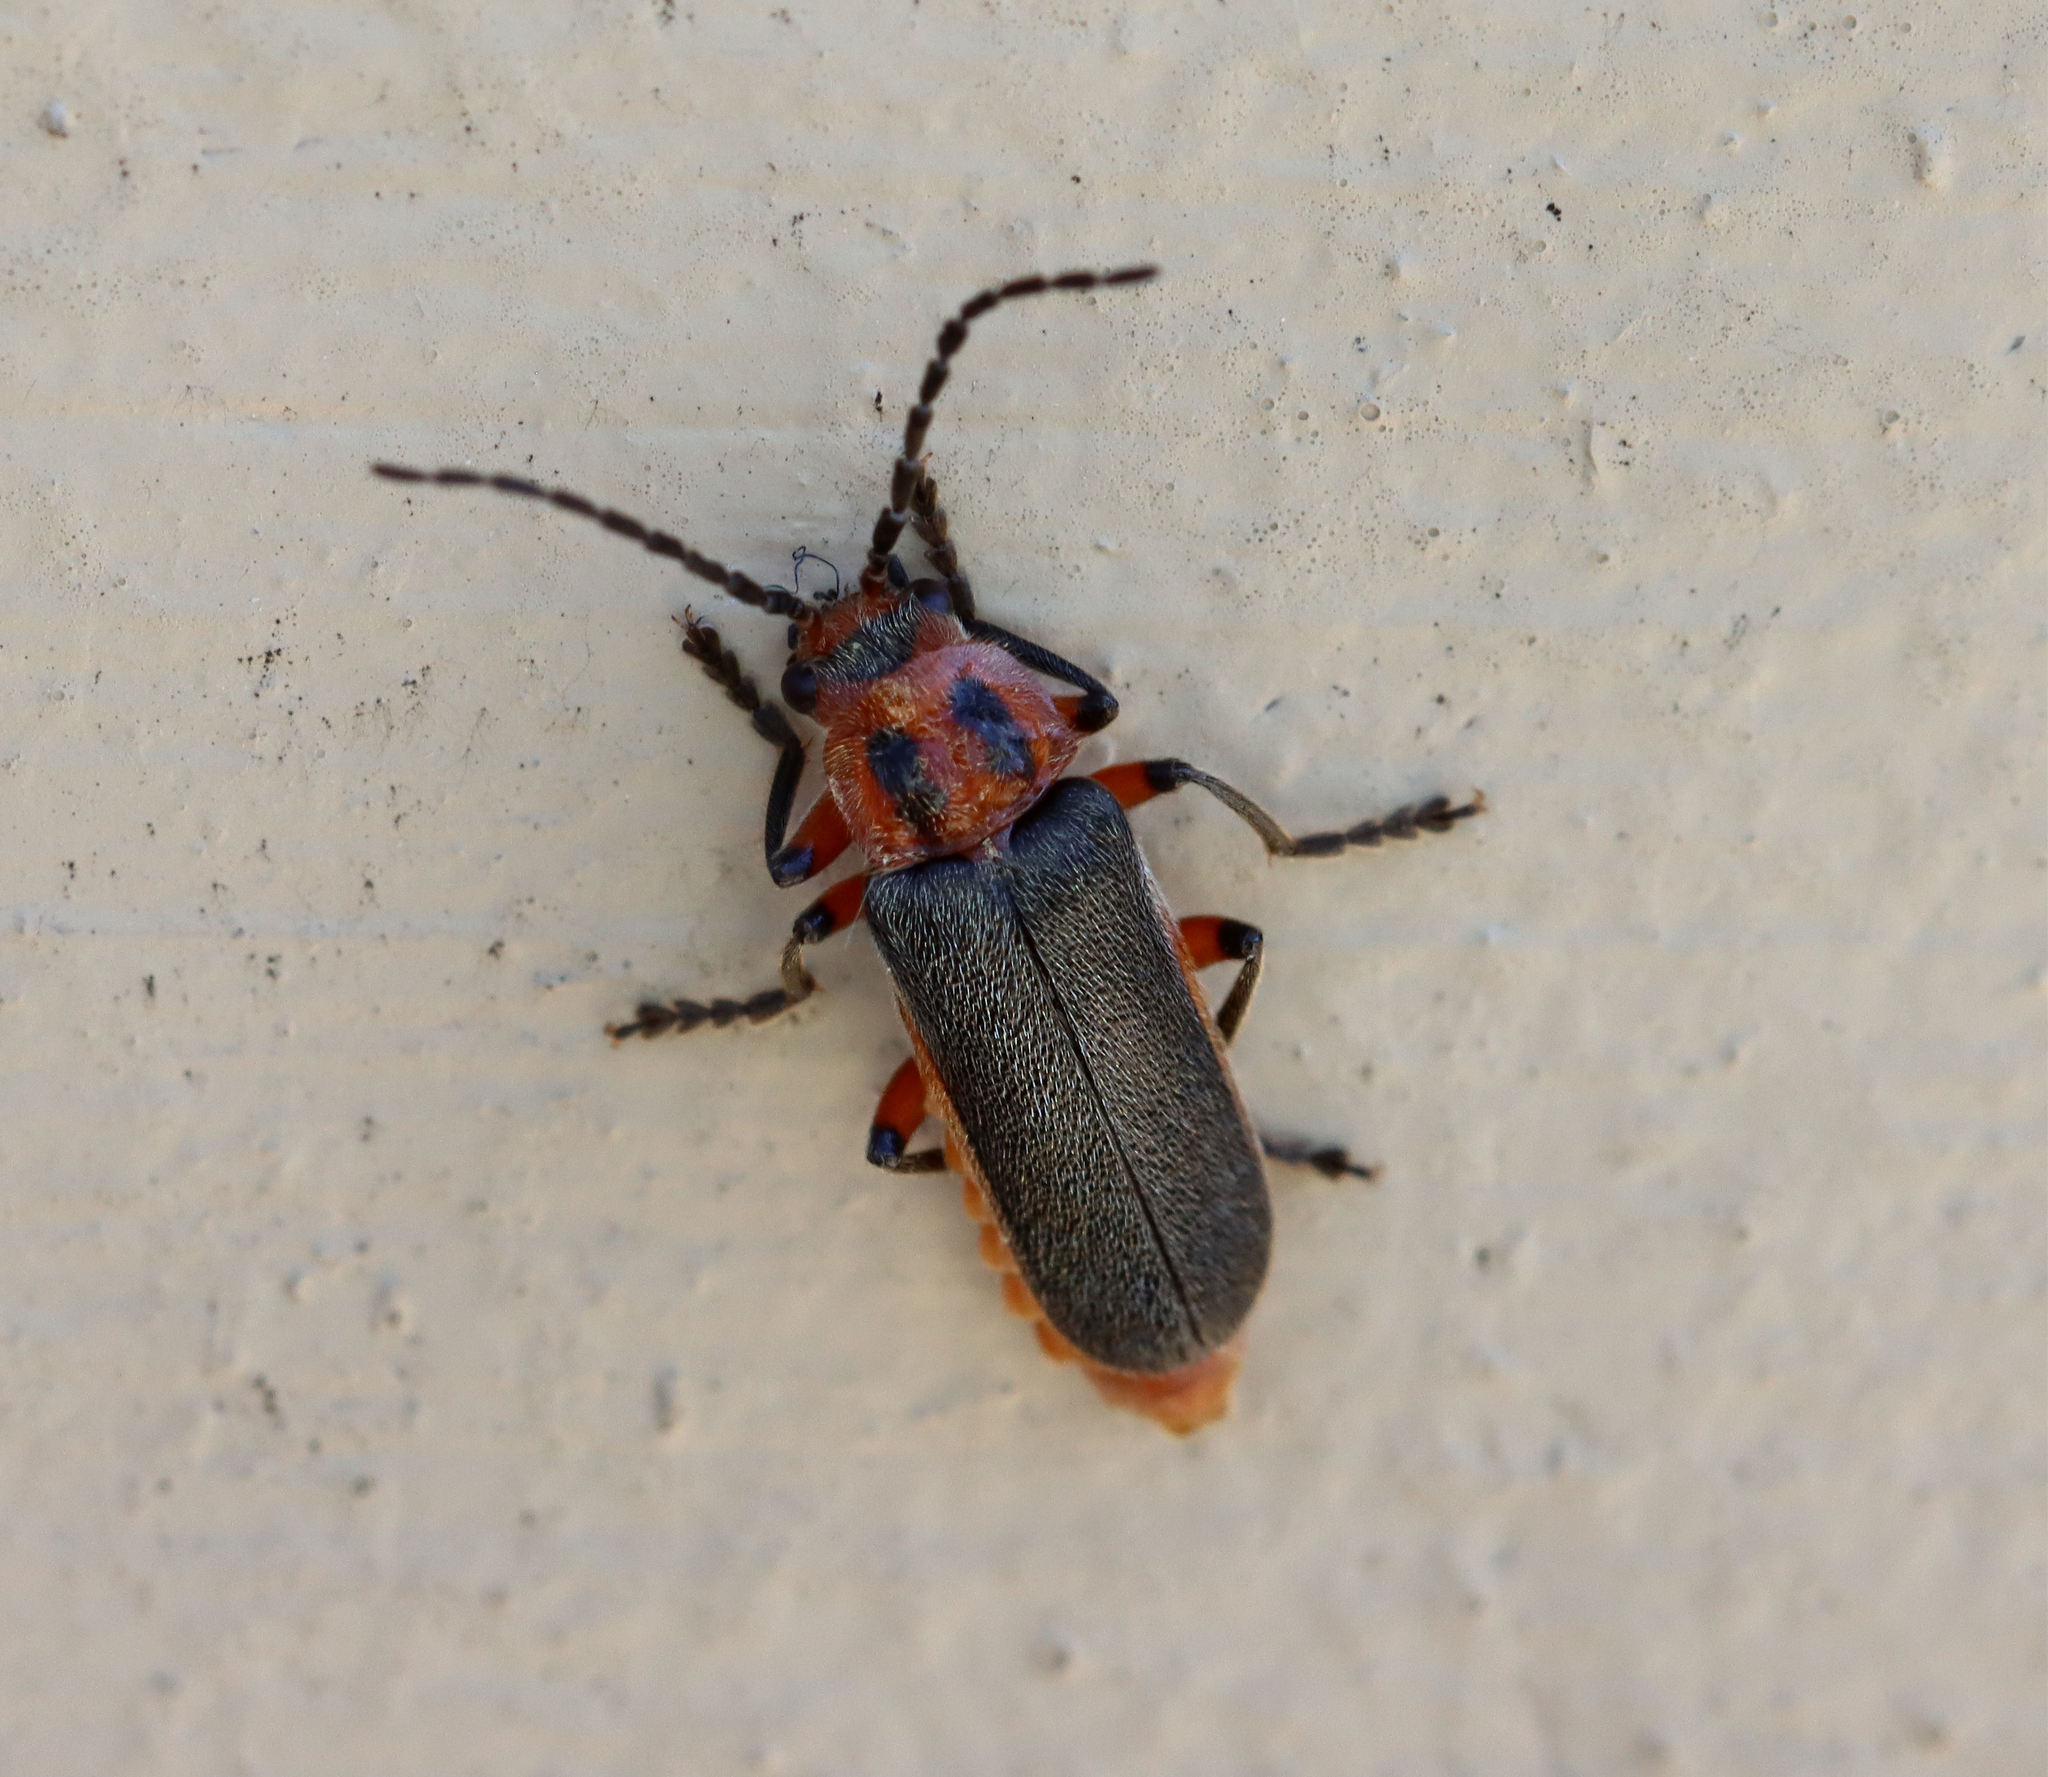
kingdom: Animalia
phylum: Arthropoda
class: Insecta
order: Coleoptera
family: Cantharidae
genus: Atalantycha
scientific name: Atalantycha bilineata
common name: Two-lined leatherwing
